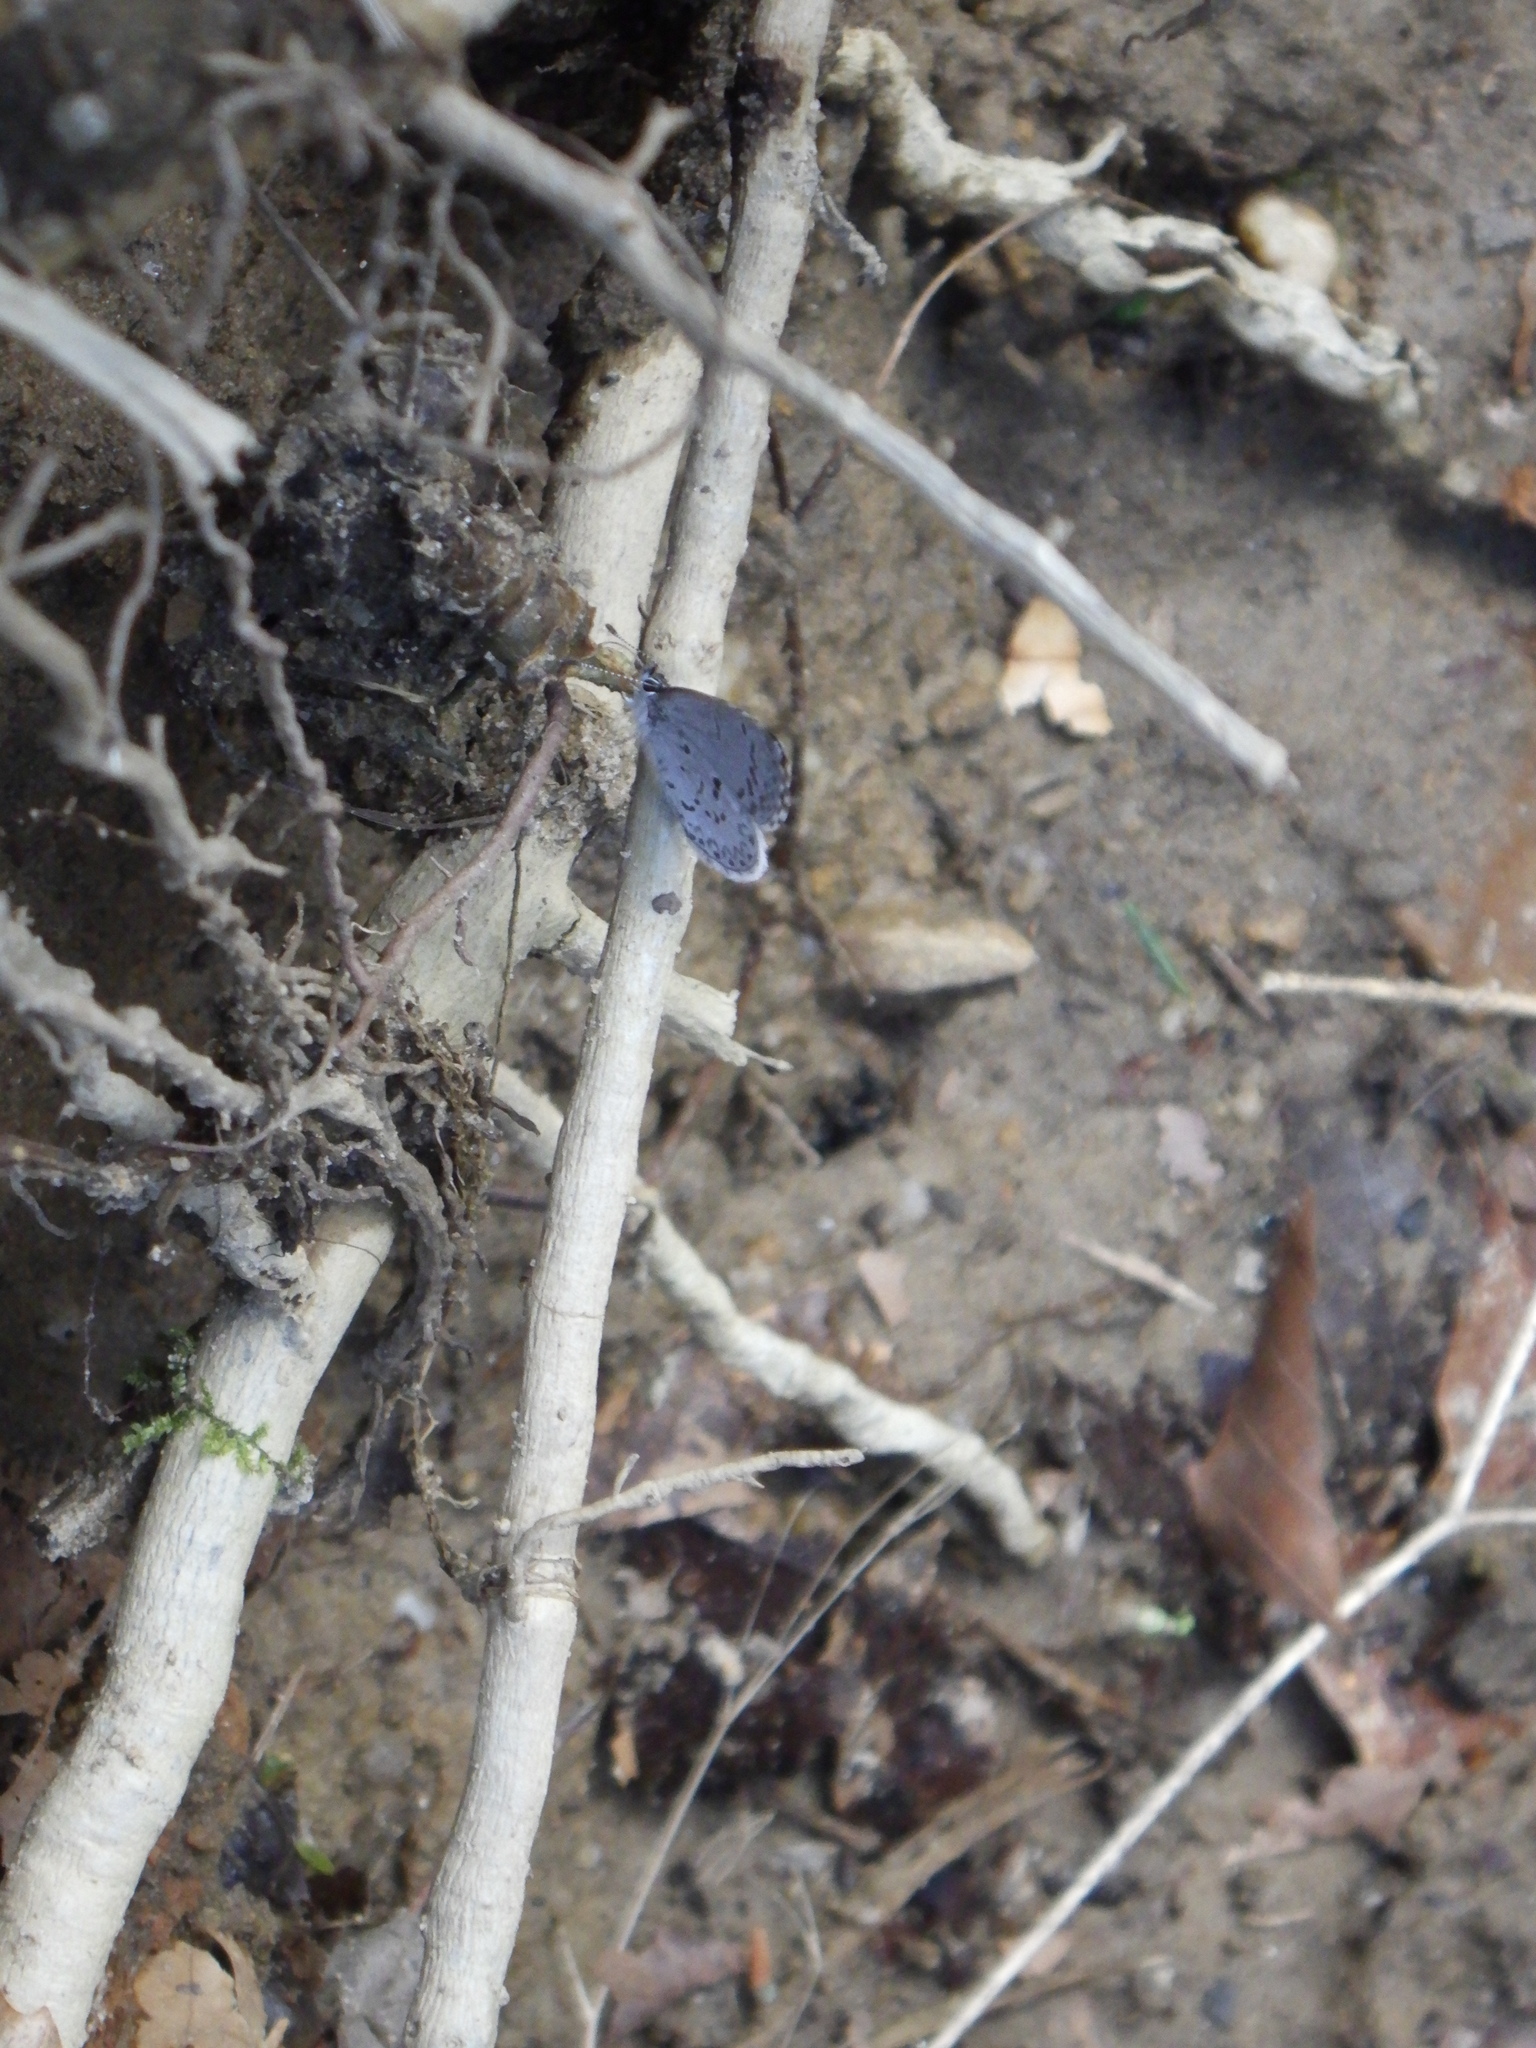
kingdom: Animalia
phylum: Arthropoda
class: Insecta
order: Lepidoptera
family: Lycaenidae
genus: Celastrina
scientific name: Celastrina ladon
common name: Spring azure
